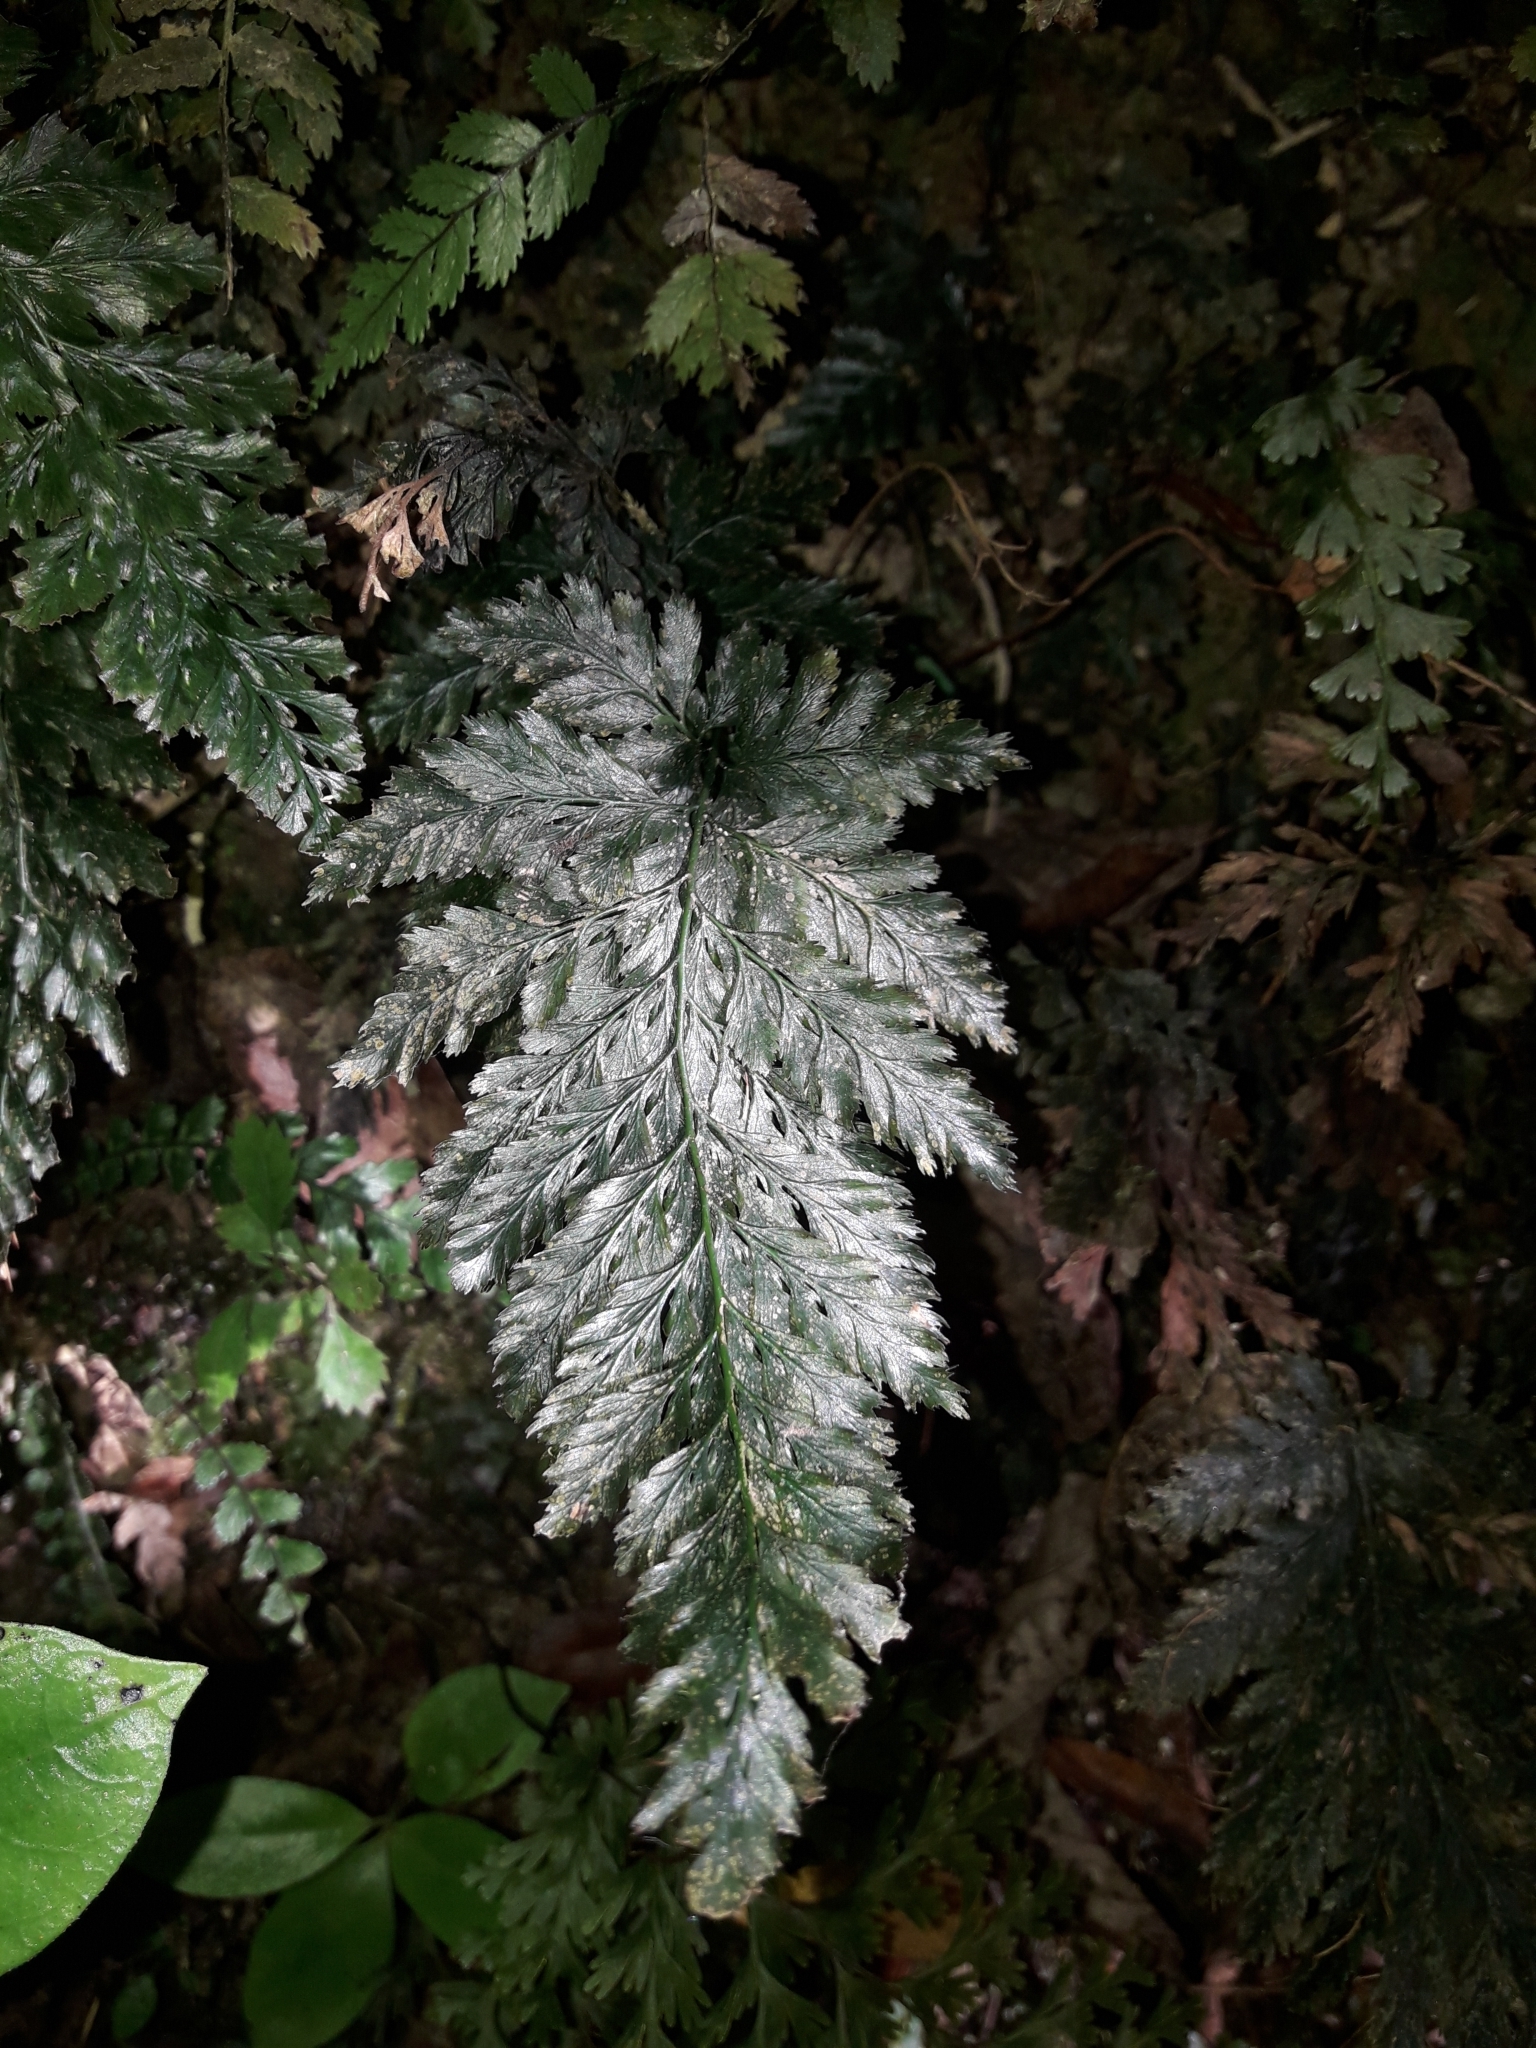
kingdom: Plantae
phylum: Tracheophyta
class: Polypodiopsida
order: Hymenophyllales
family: Hymenophyllaceae
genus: Abrodictyum
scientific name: Abrodictyum elongatum
